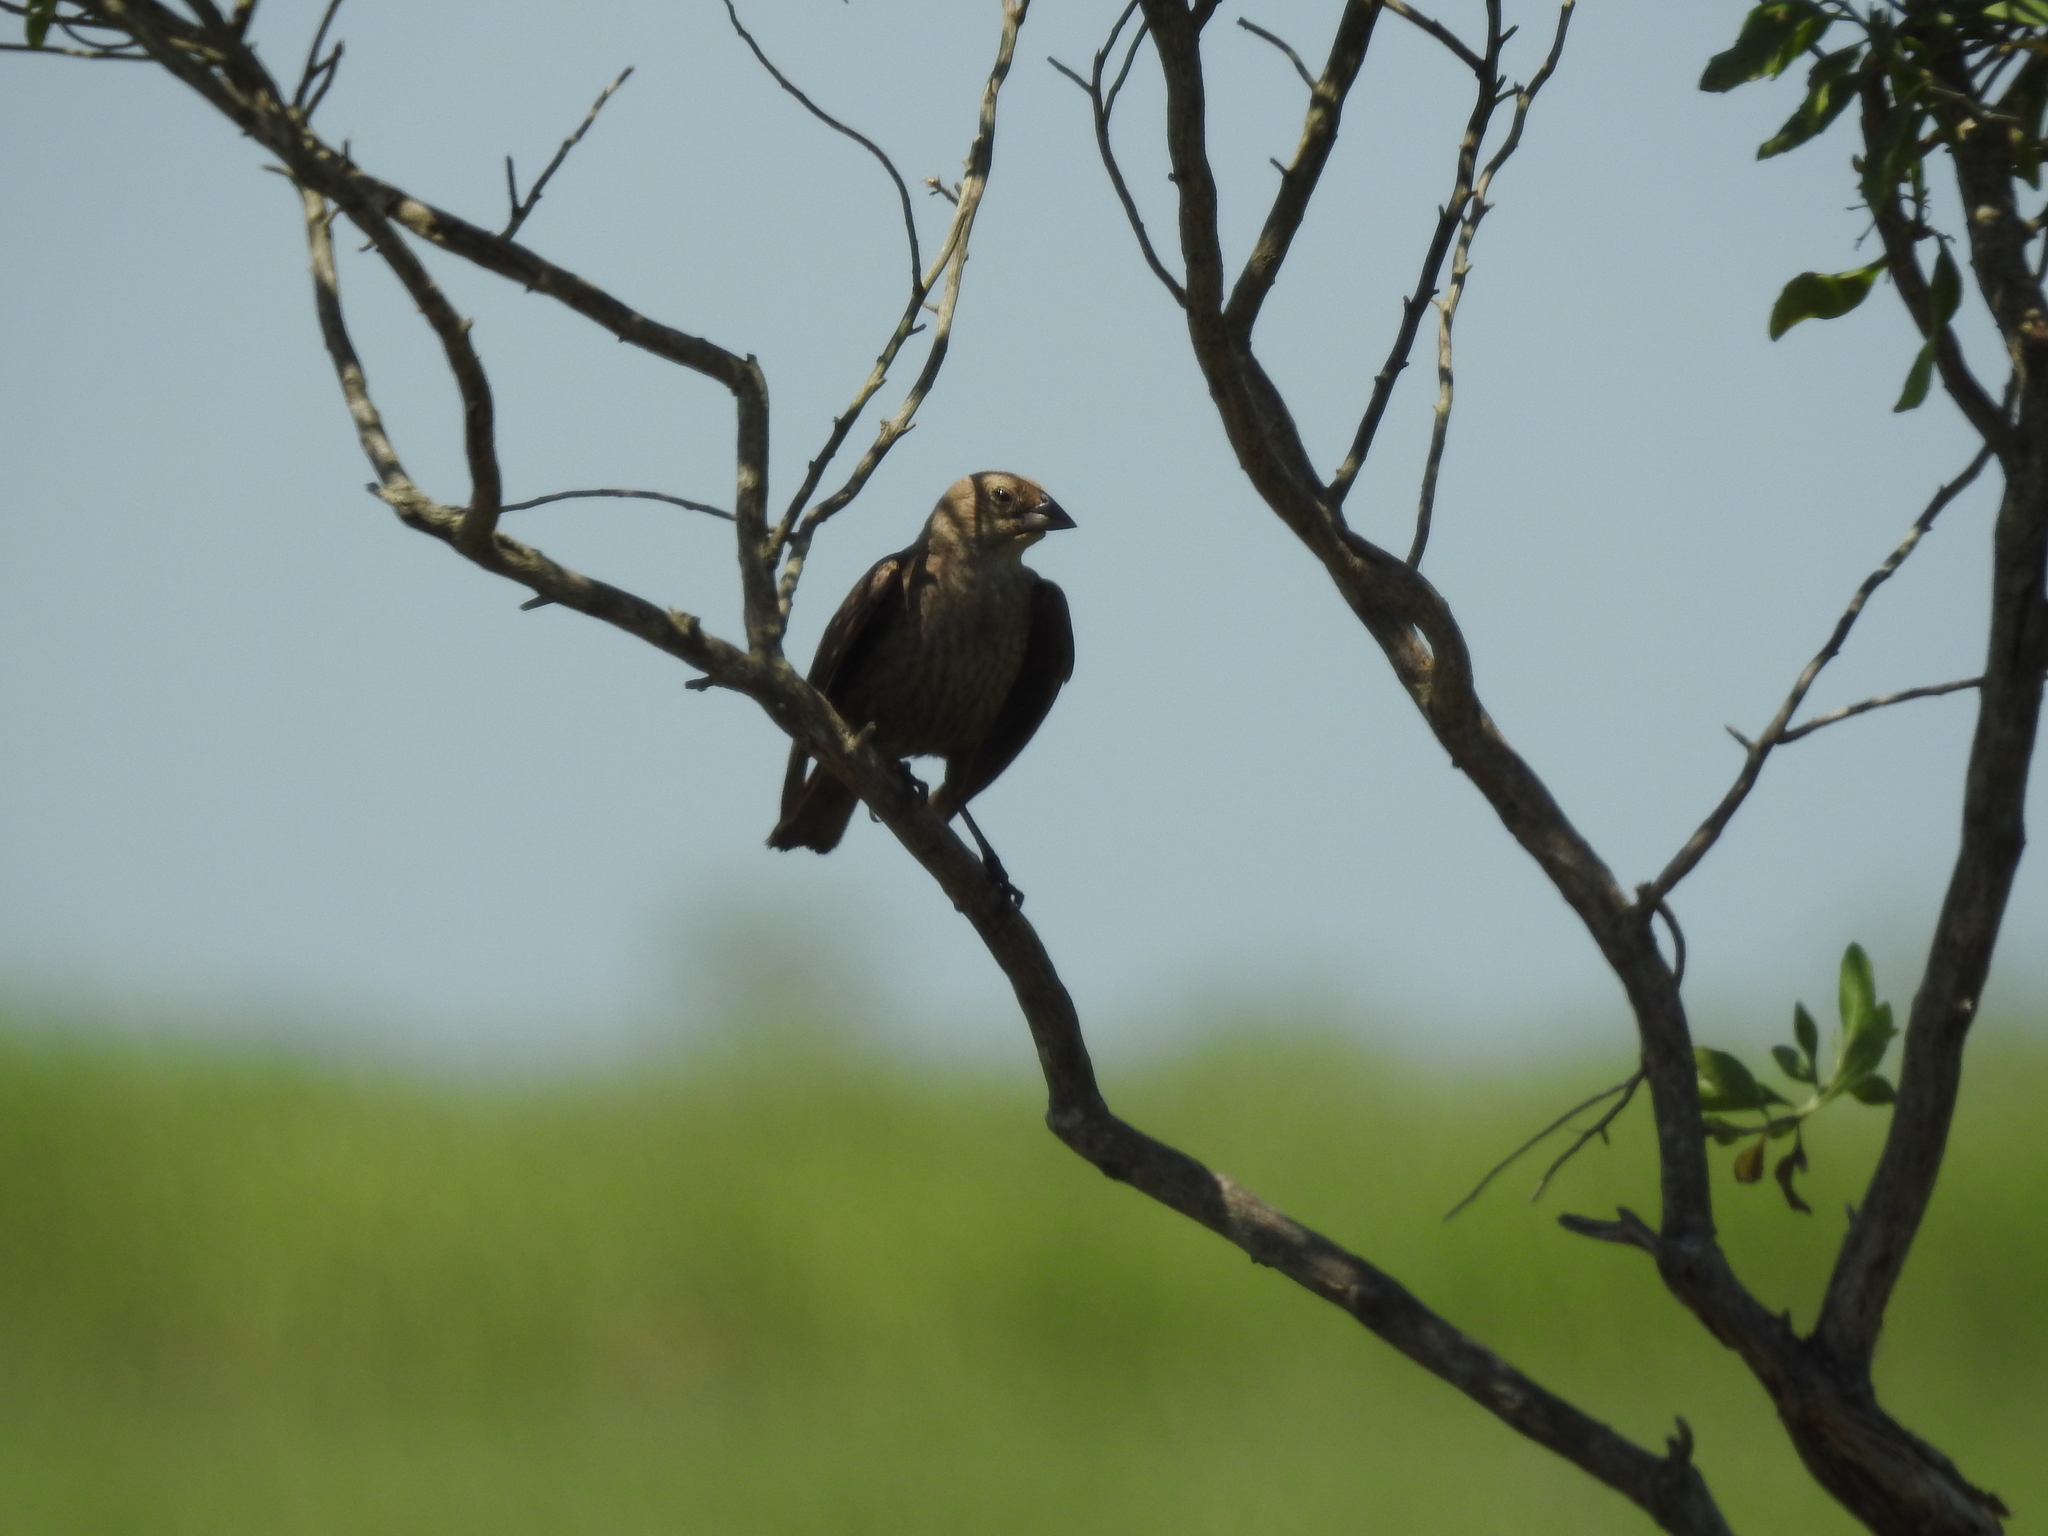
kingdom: Animalia
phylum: Chordata
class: Aves
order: Passeriformes
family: Icteridae
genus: Molothrus
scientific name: Molothrus ater
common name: Brown-headed cowbird
